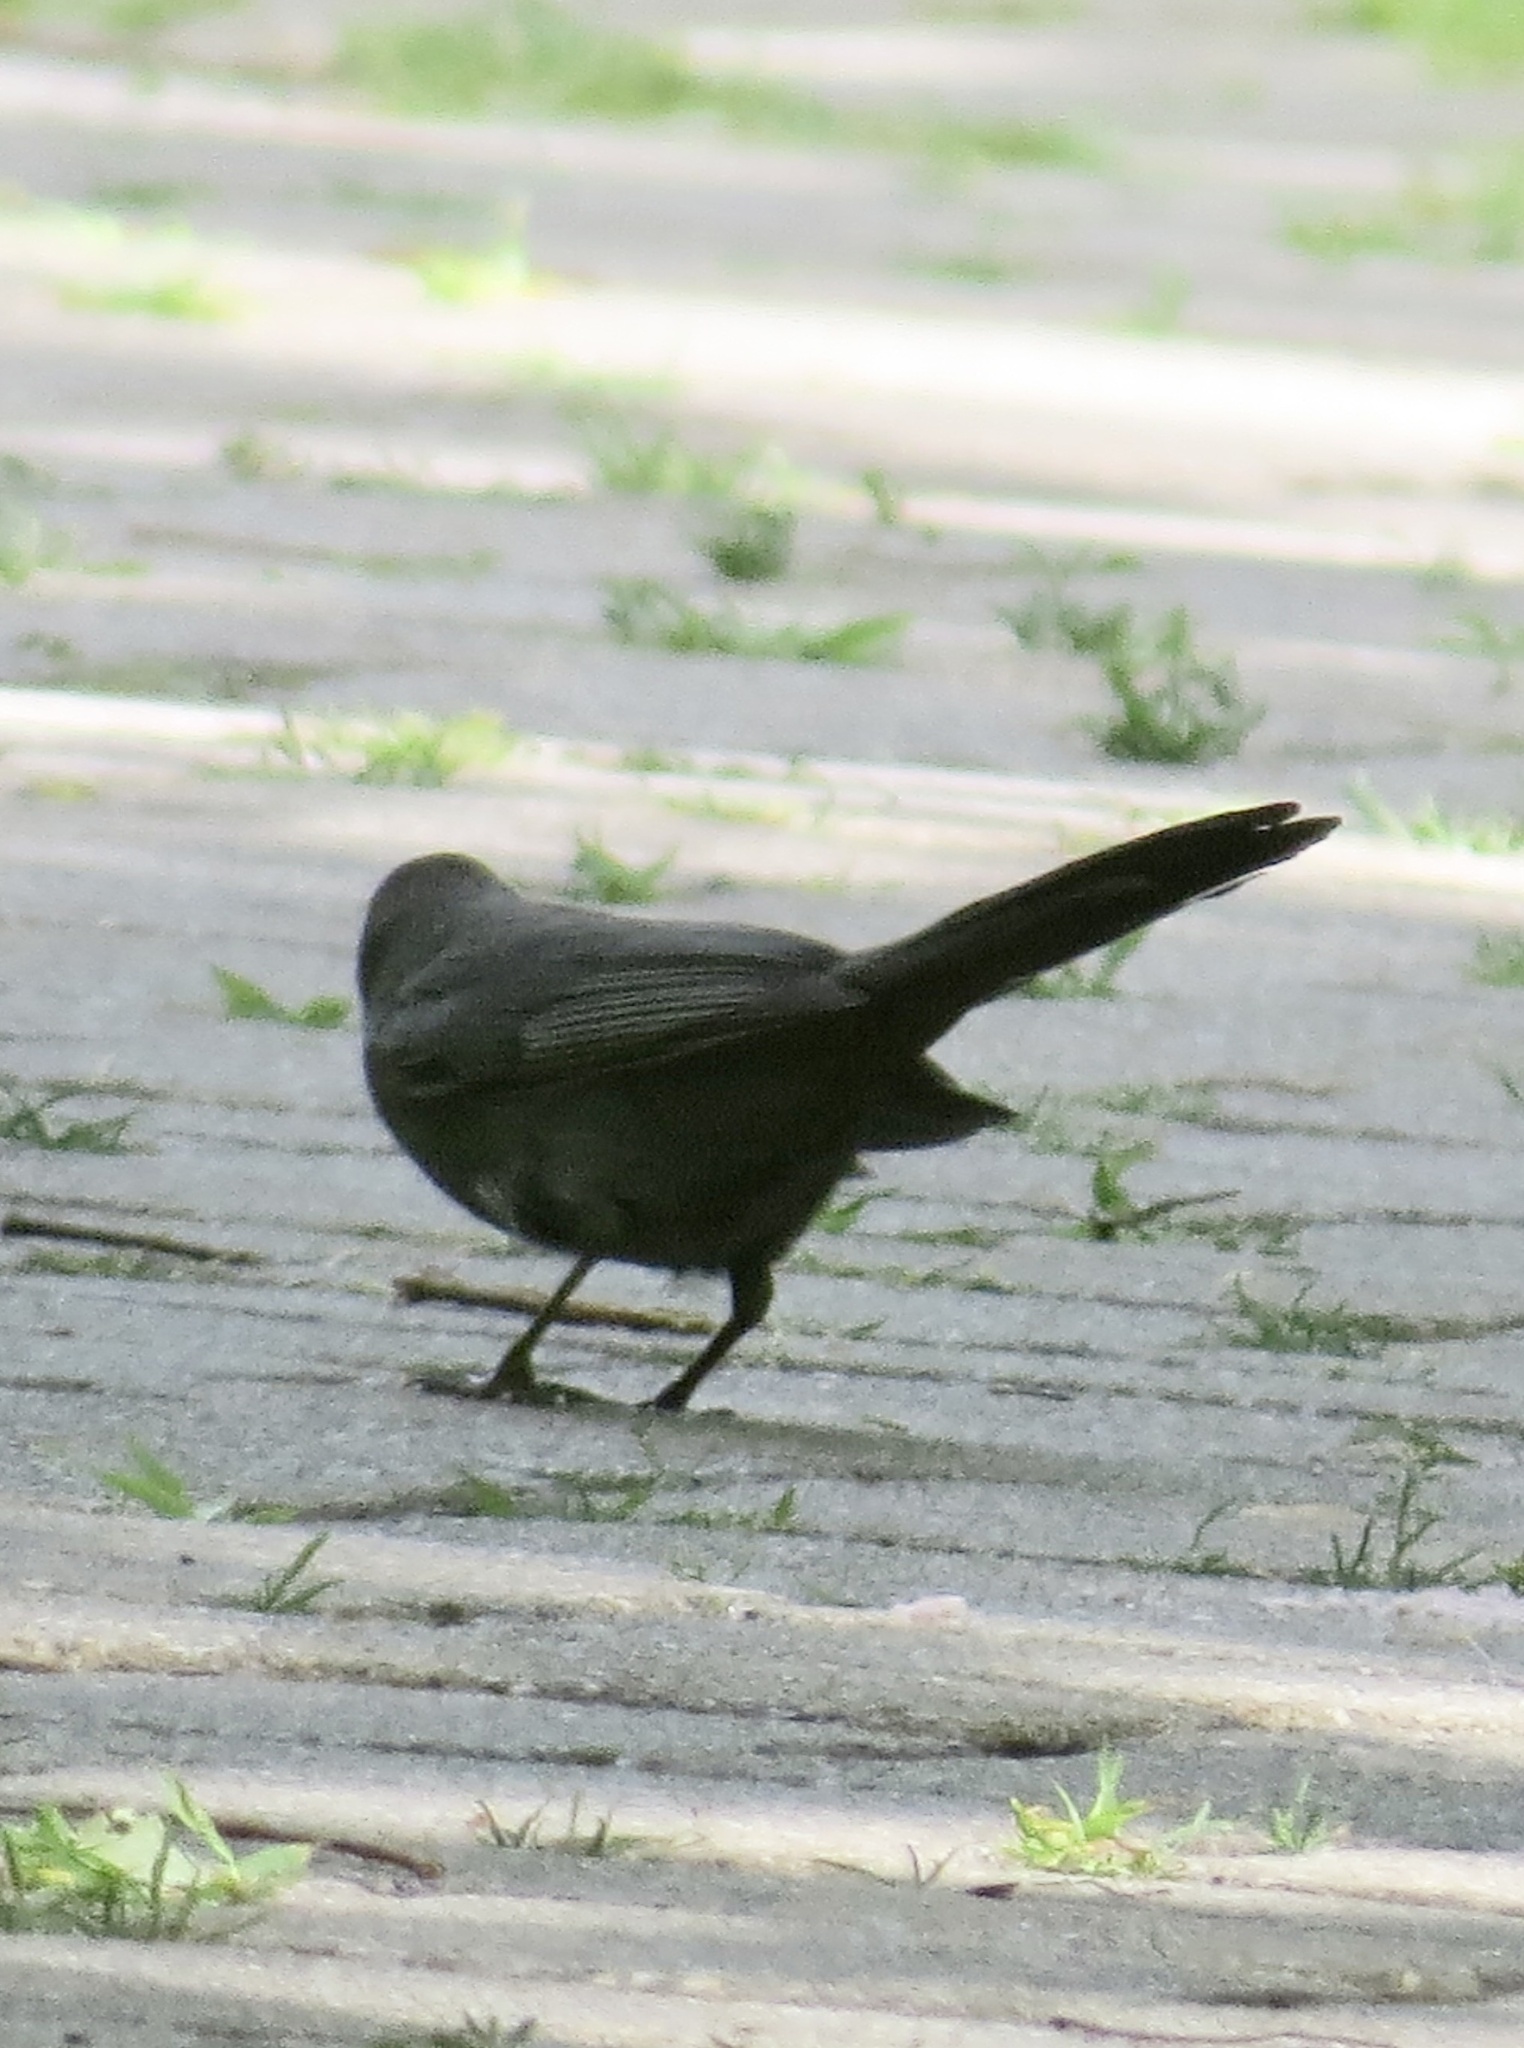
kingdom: Animalia
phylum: Chordata
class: Aves
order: Passeriformes
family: Mimidae
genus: Dumetella
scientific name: Dumetella carolinensis
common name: Gray catbird
